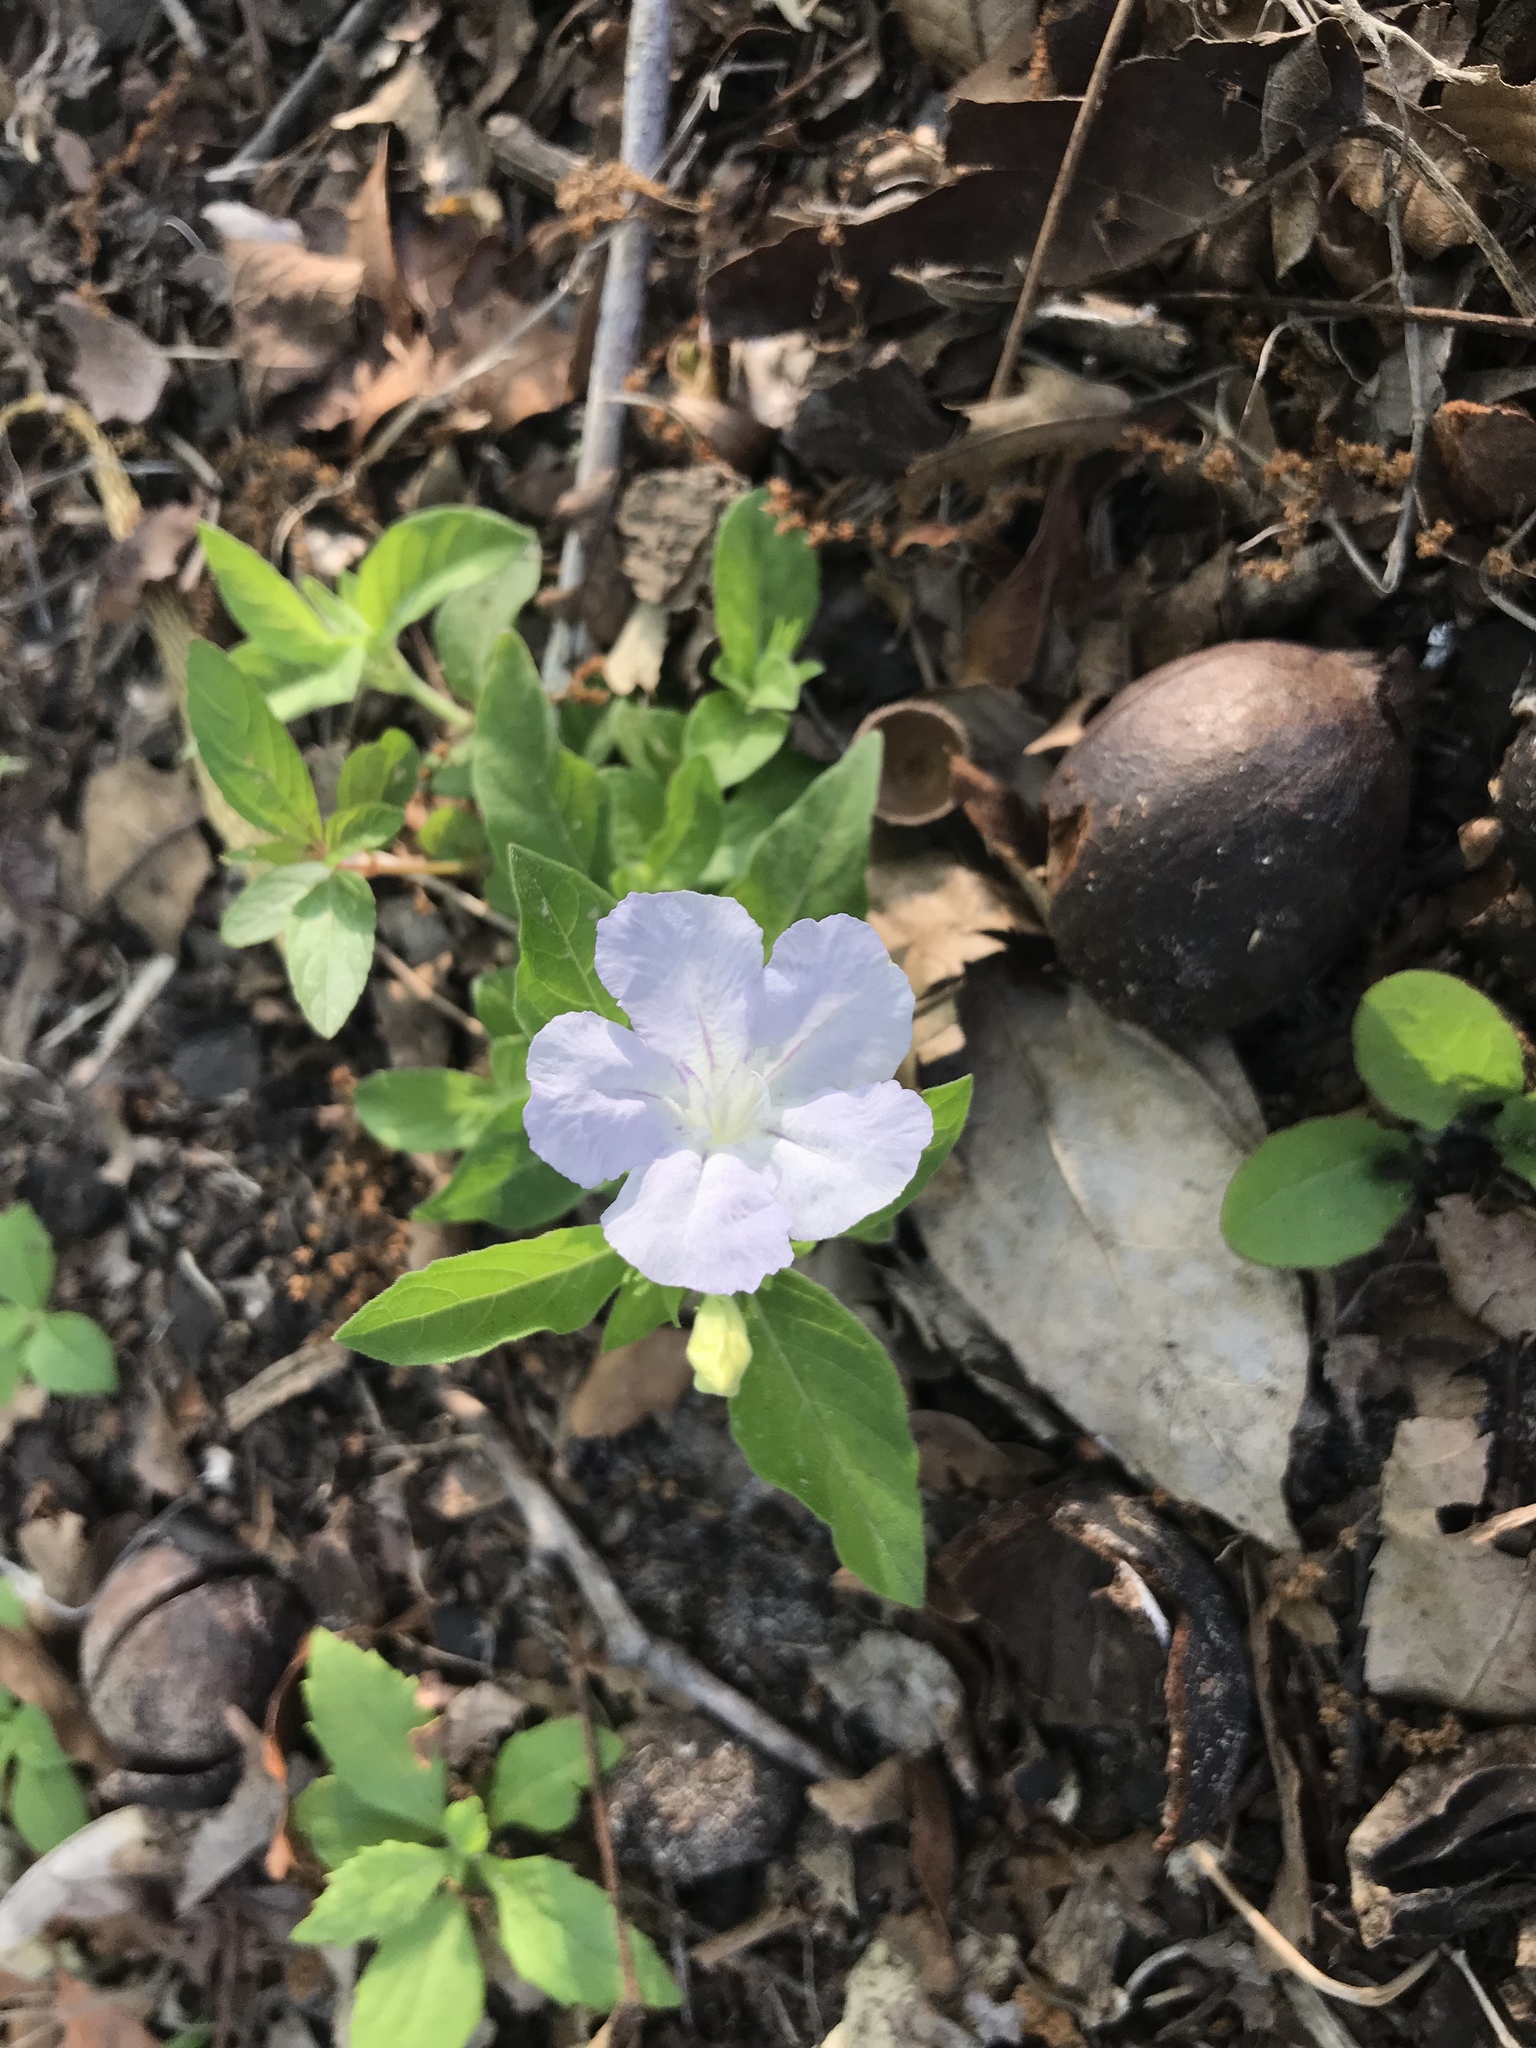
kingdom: Plantae
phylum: Tracheophyta
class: Magnoliopsida
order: Lamiales
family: Acanthaceae
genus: Ruellia
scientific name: Ruellia caroliniensis
